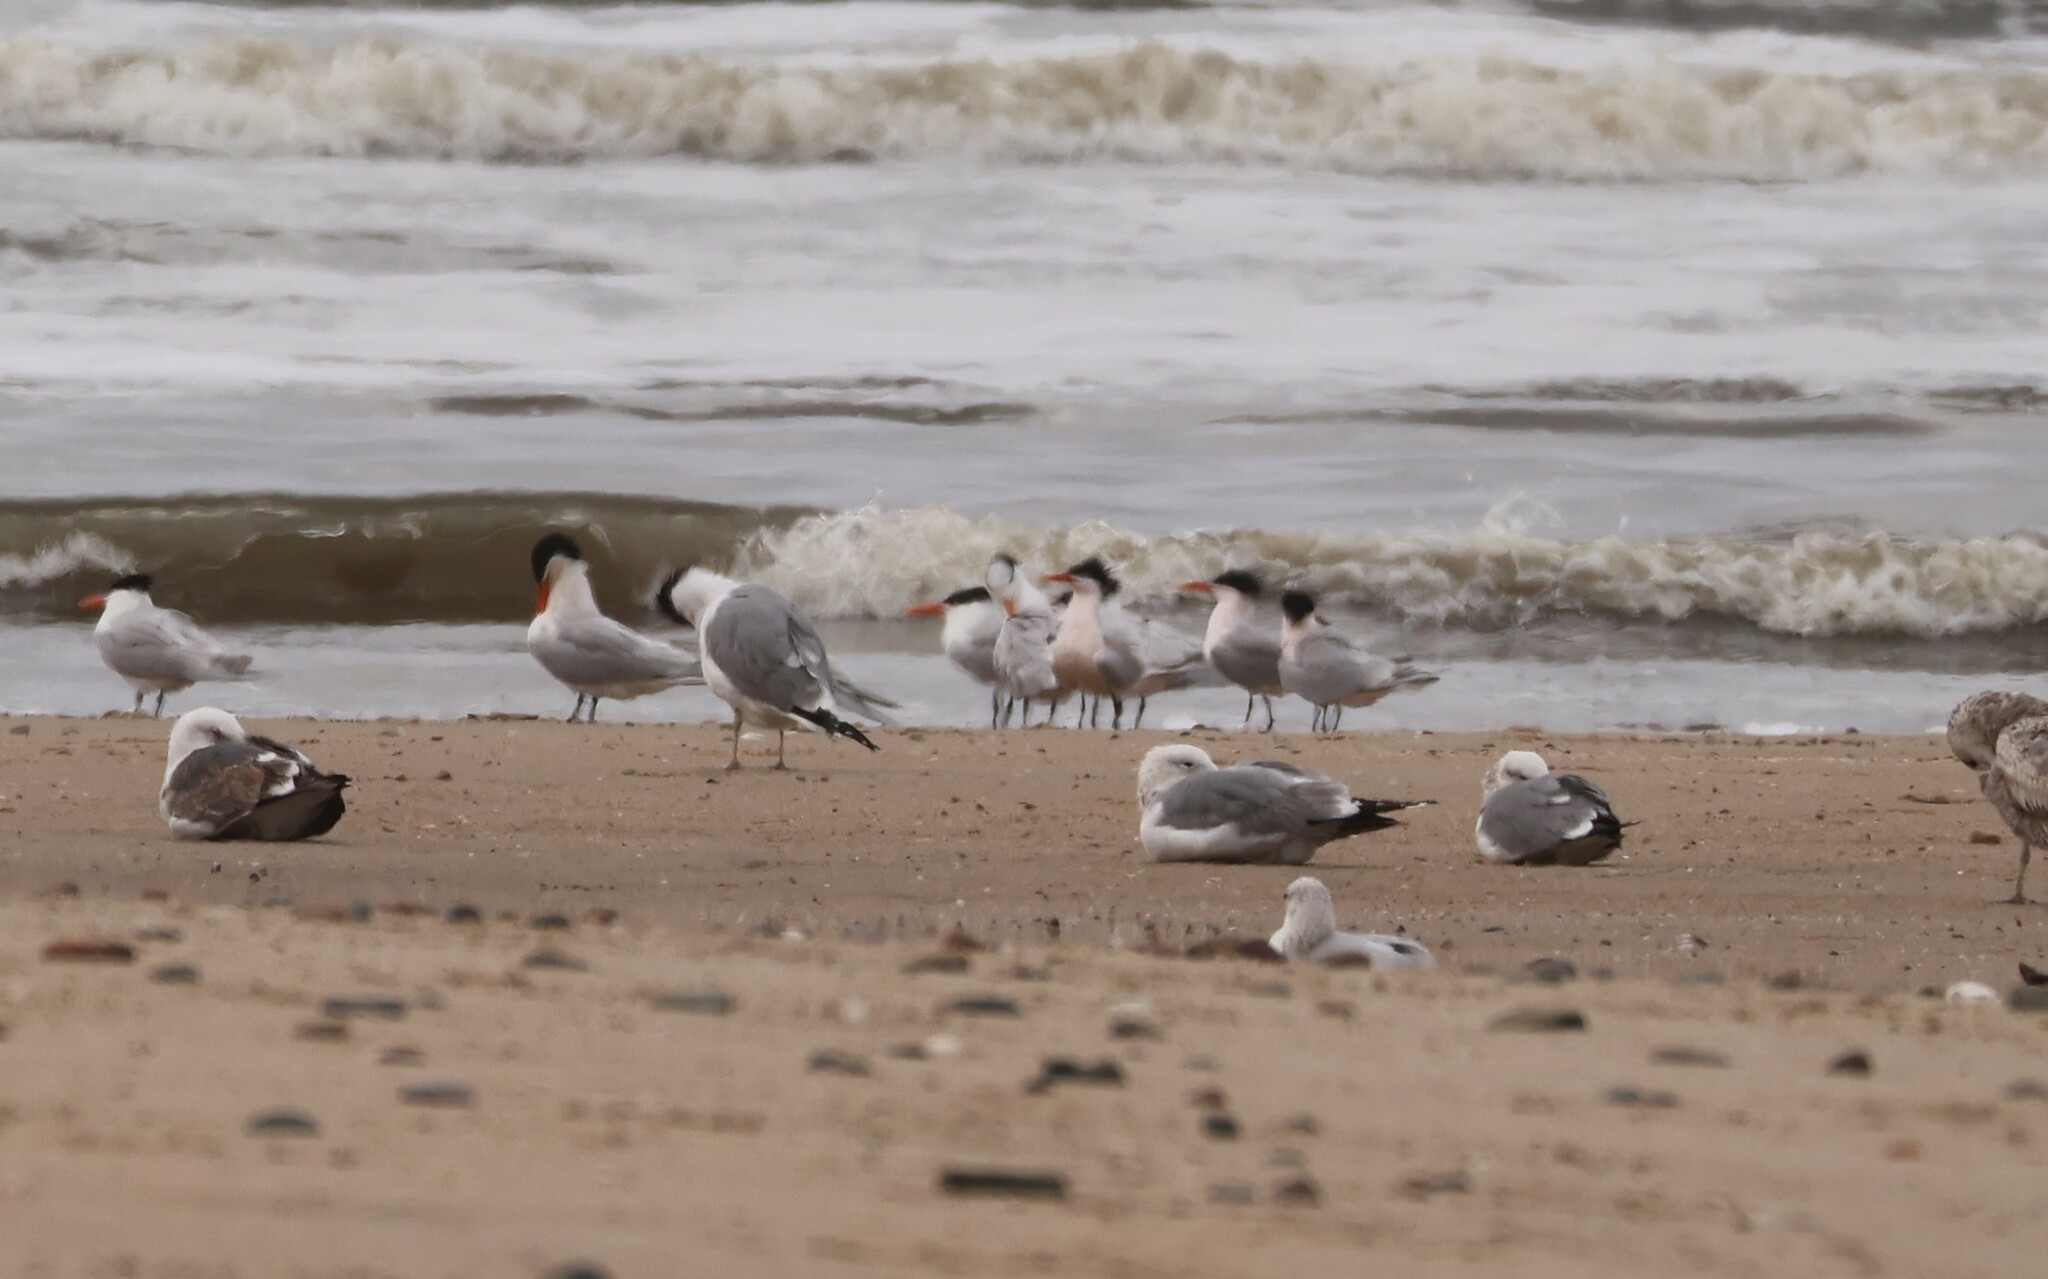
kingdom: Animalia
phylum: Chordata
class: Aves
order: Charadriiformes
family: Laridae
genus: Thalasseus
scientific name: Thalasseus elegans
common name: Elegant tern
